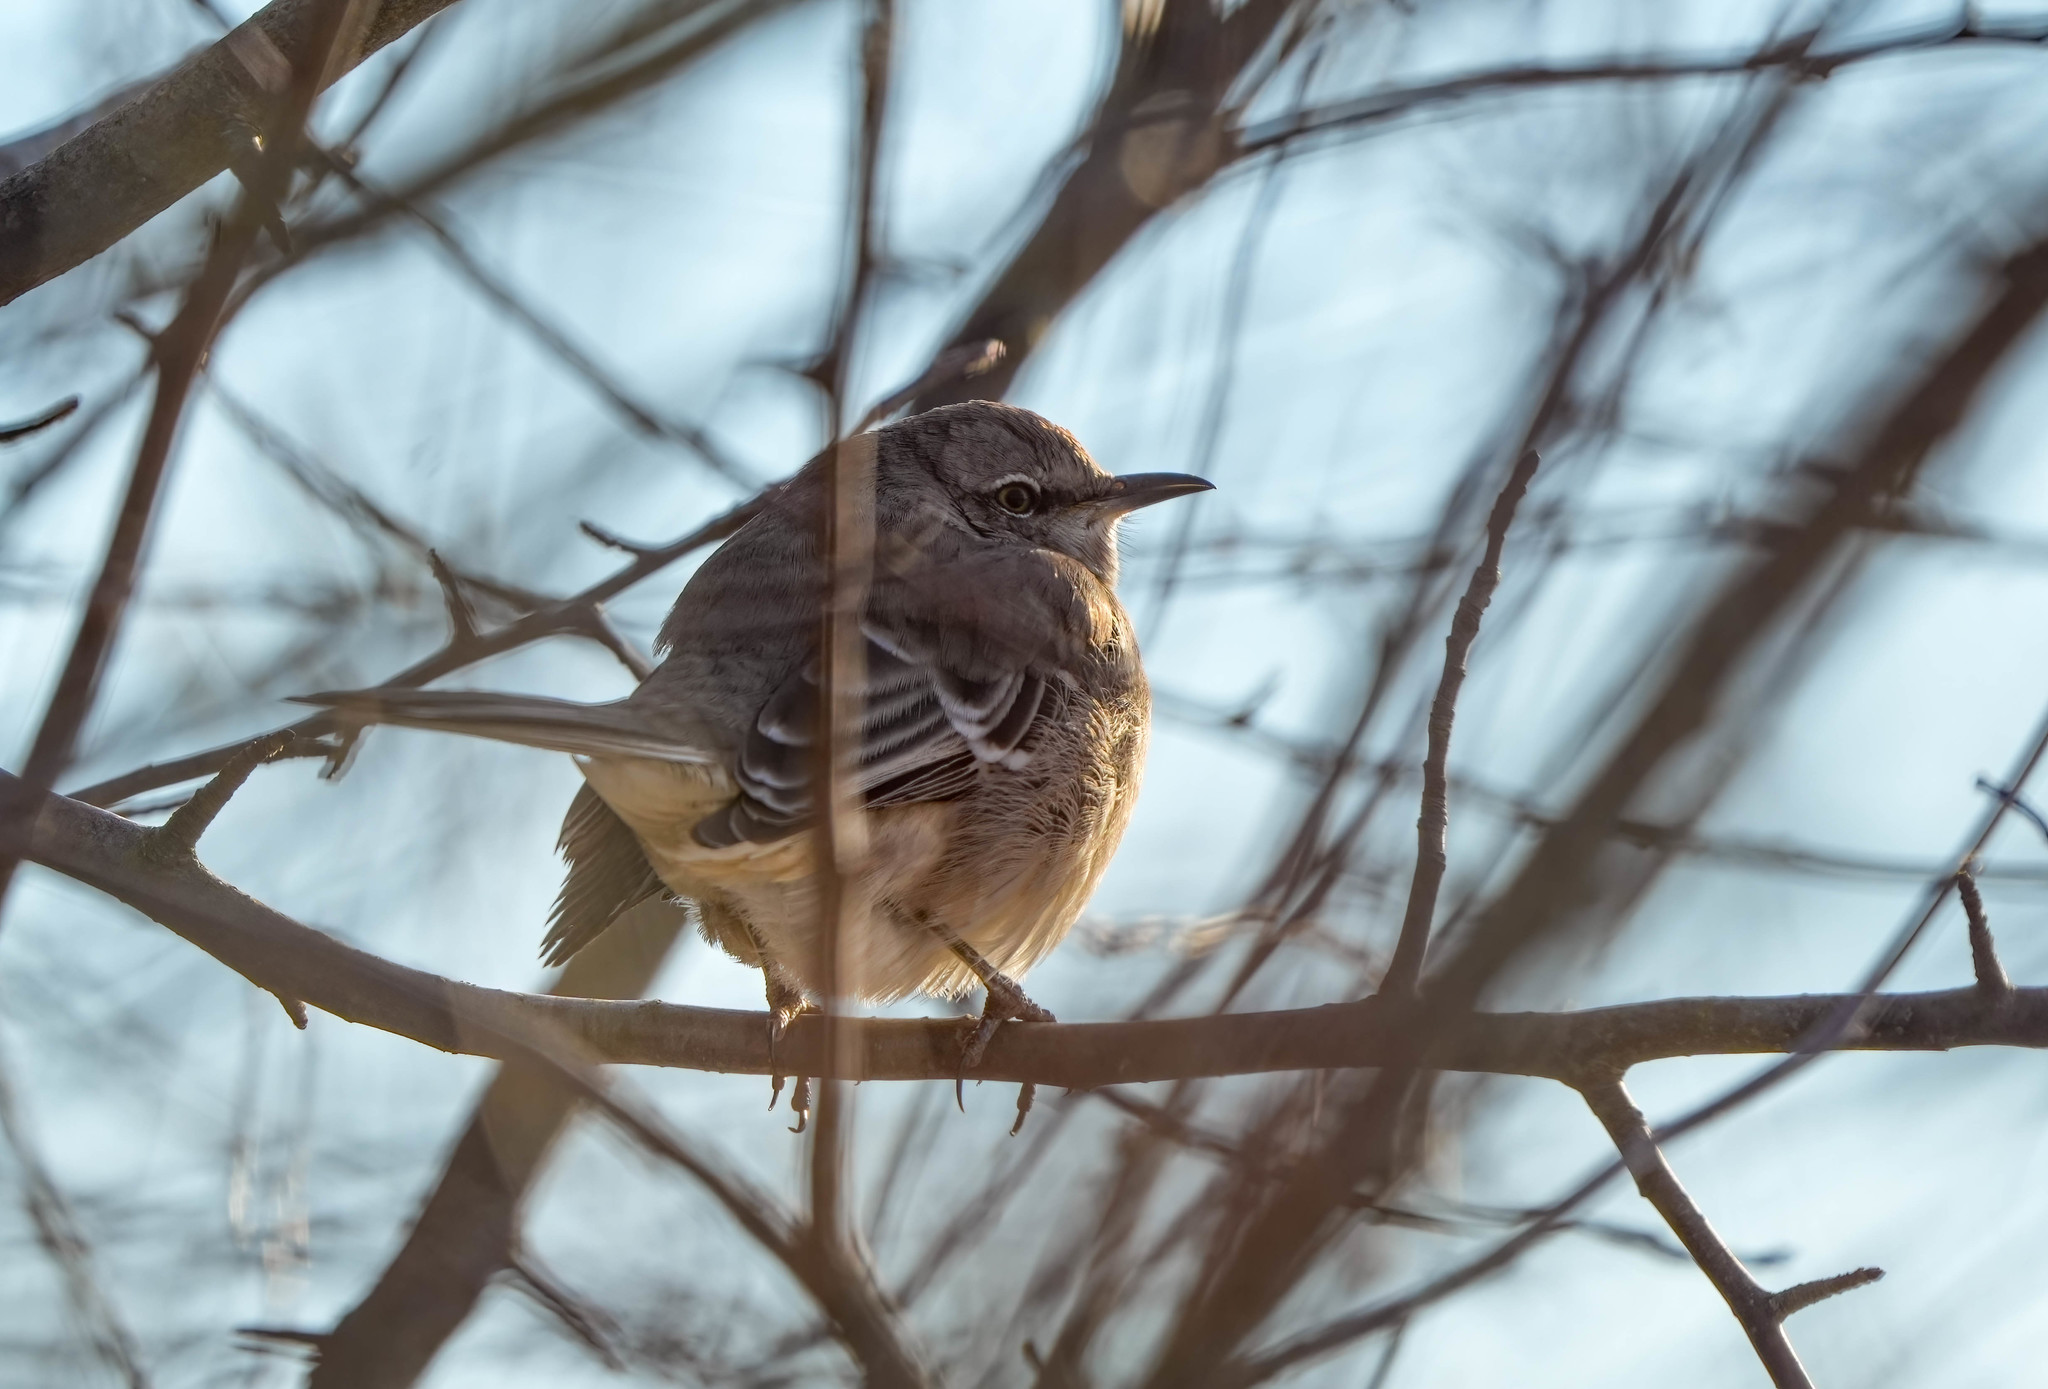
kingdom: Animalia
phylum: Chordata
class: Aves
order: Passeriformes
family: Mimidae
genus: Mimus
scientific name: Mimus polyglottos
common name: Northern mockingbird
